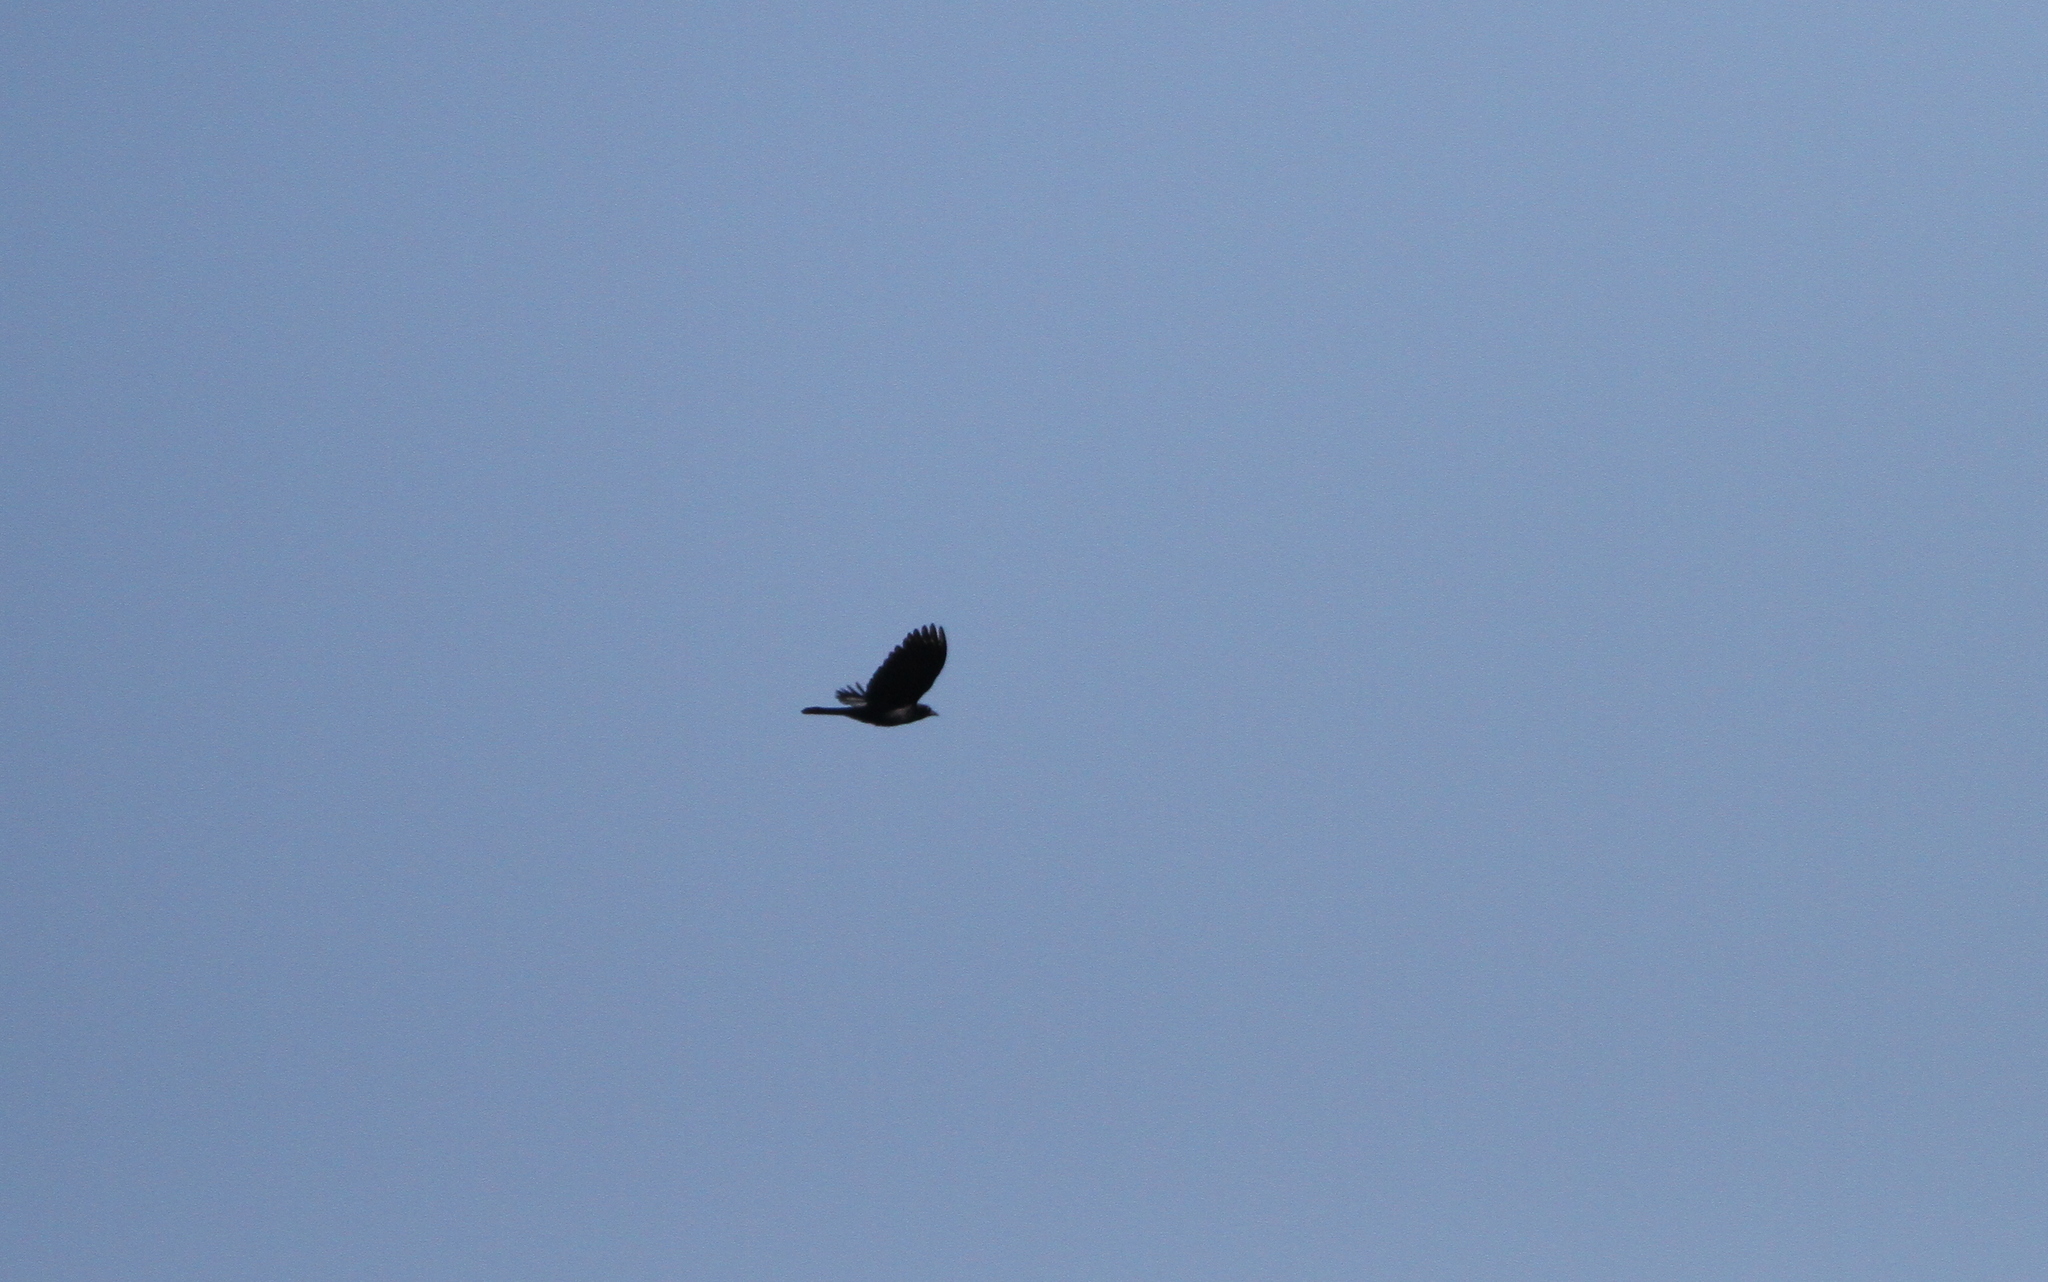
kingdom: Animalia
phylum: Chordata
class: Aves
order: Passeriformes
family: Icteridae
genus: Agelaius
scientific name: Agelaius assimilis
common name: Red-shouldered blackbird
